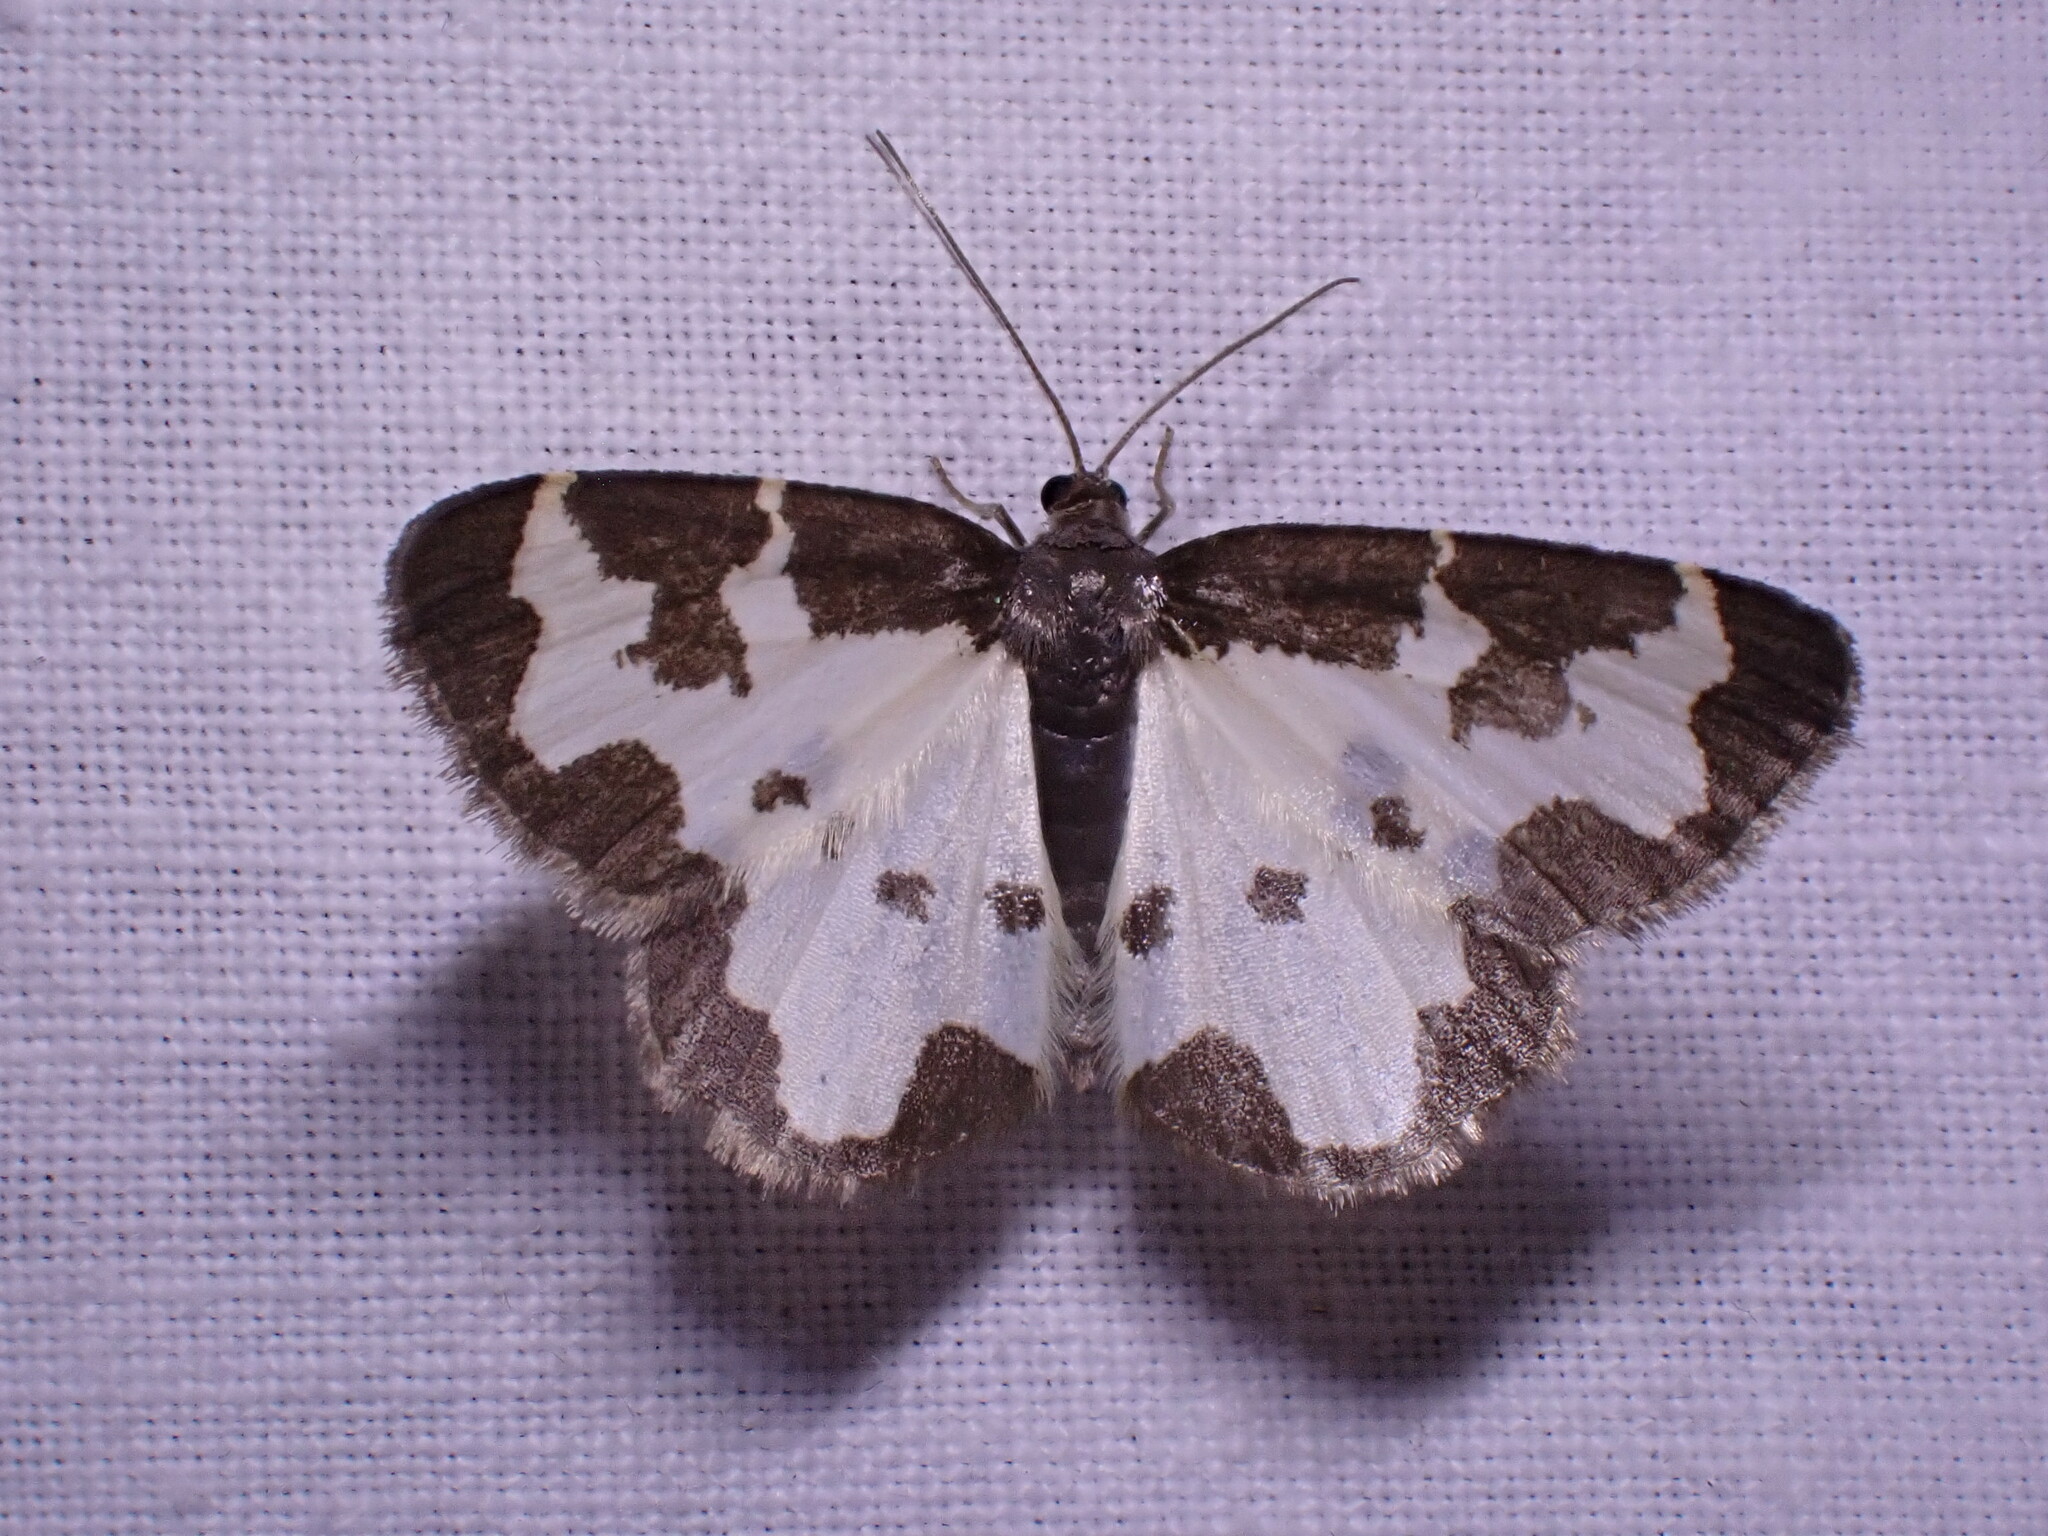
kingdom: Animalia
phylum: Arthropoda
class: Insecta
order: Lepidoptera
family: Geometridae
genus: Lomaspilis
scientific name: Lomaspilis marginata
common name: Clouded border
